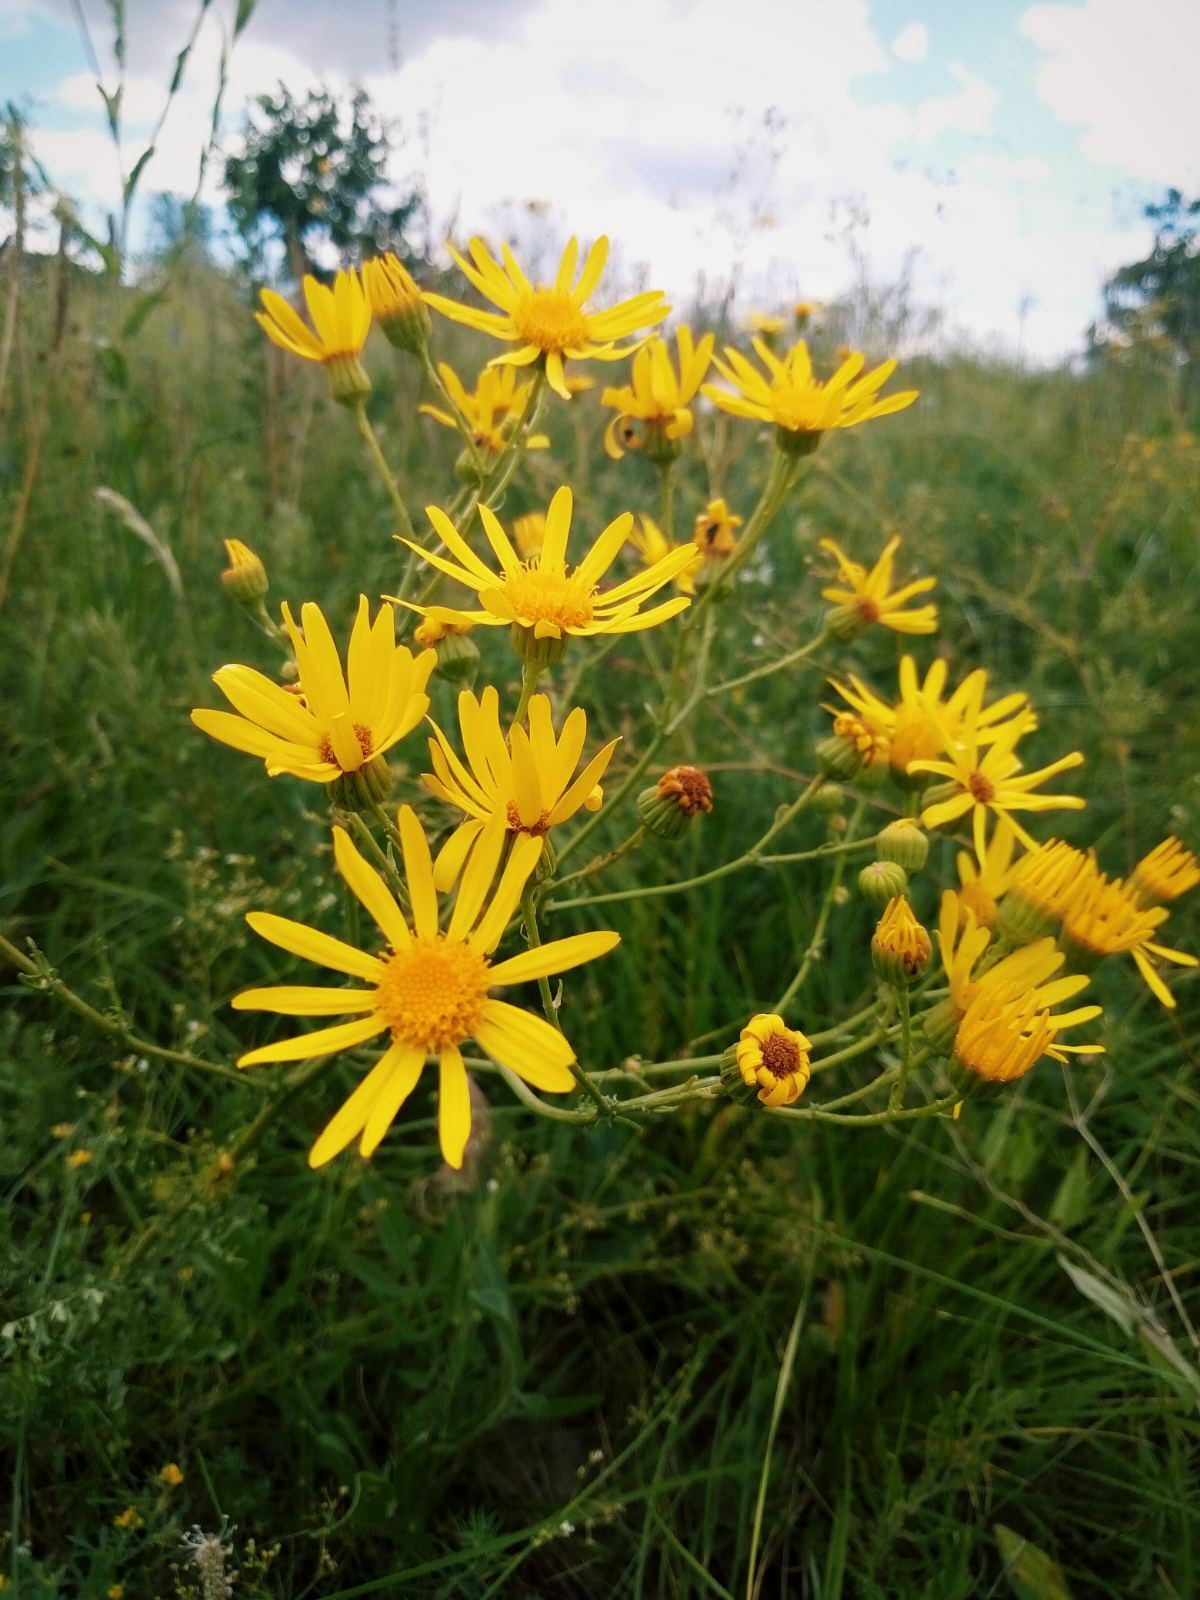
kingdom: Plantae
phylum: Tracheophyta
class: Magnoliopsida
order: Asterales
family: Asteraceae
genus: Jacobaea
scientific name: Jacobaea vulgaris
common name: Stinking willie
